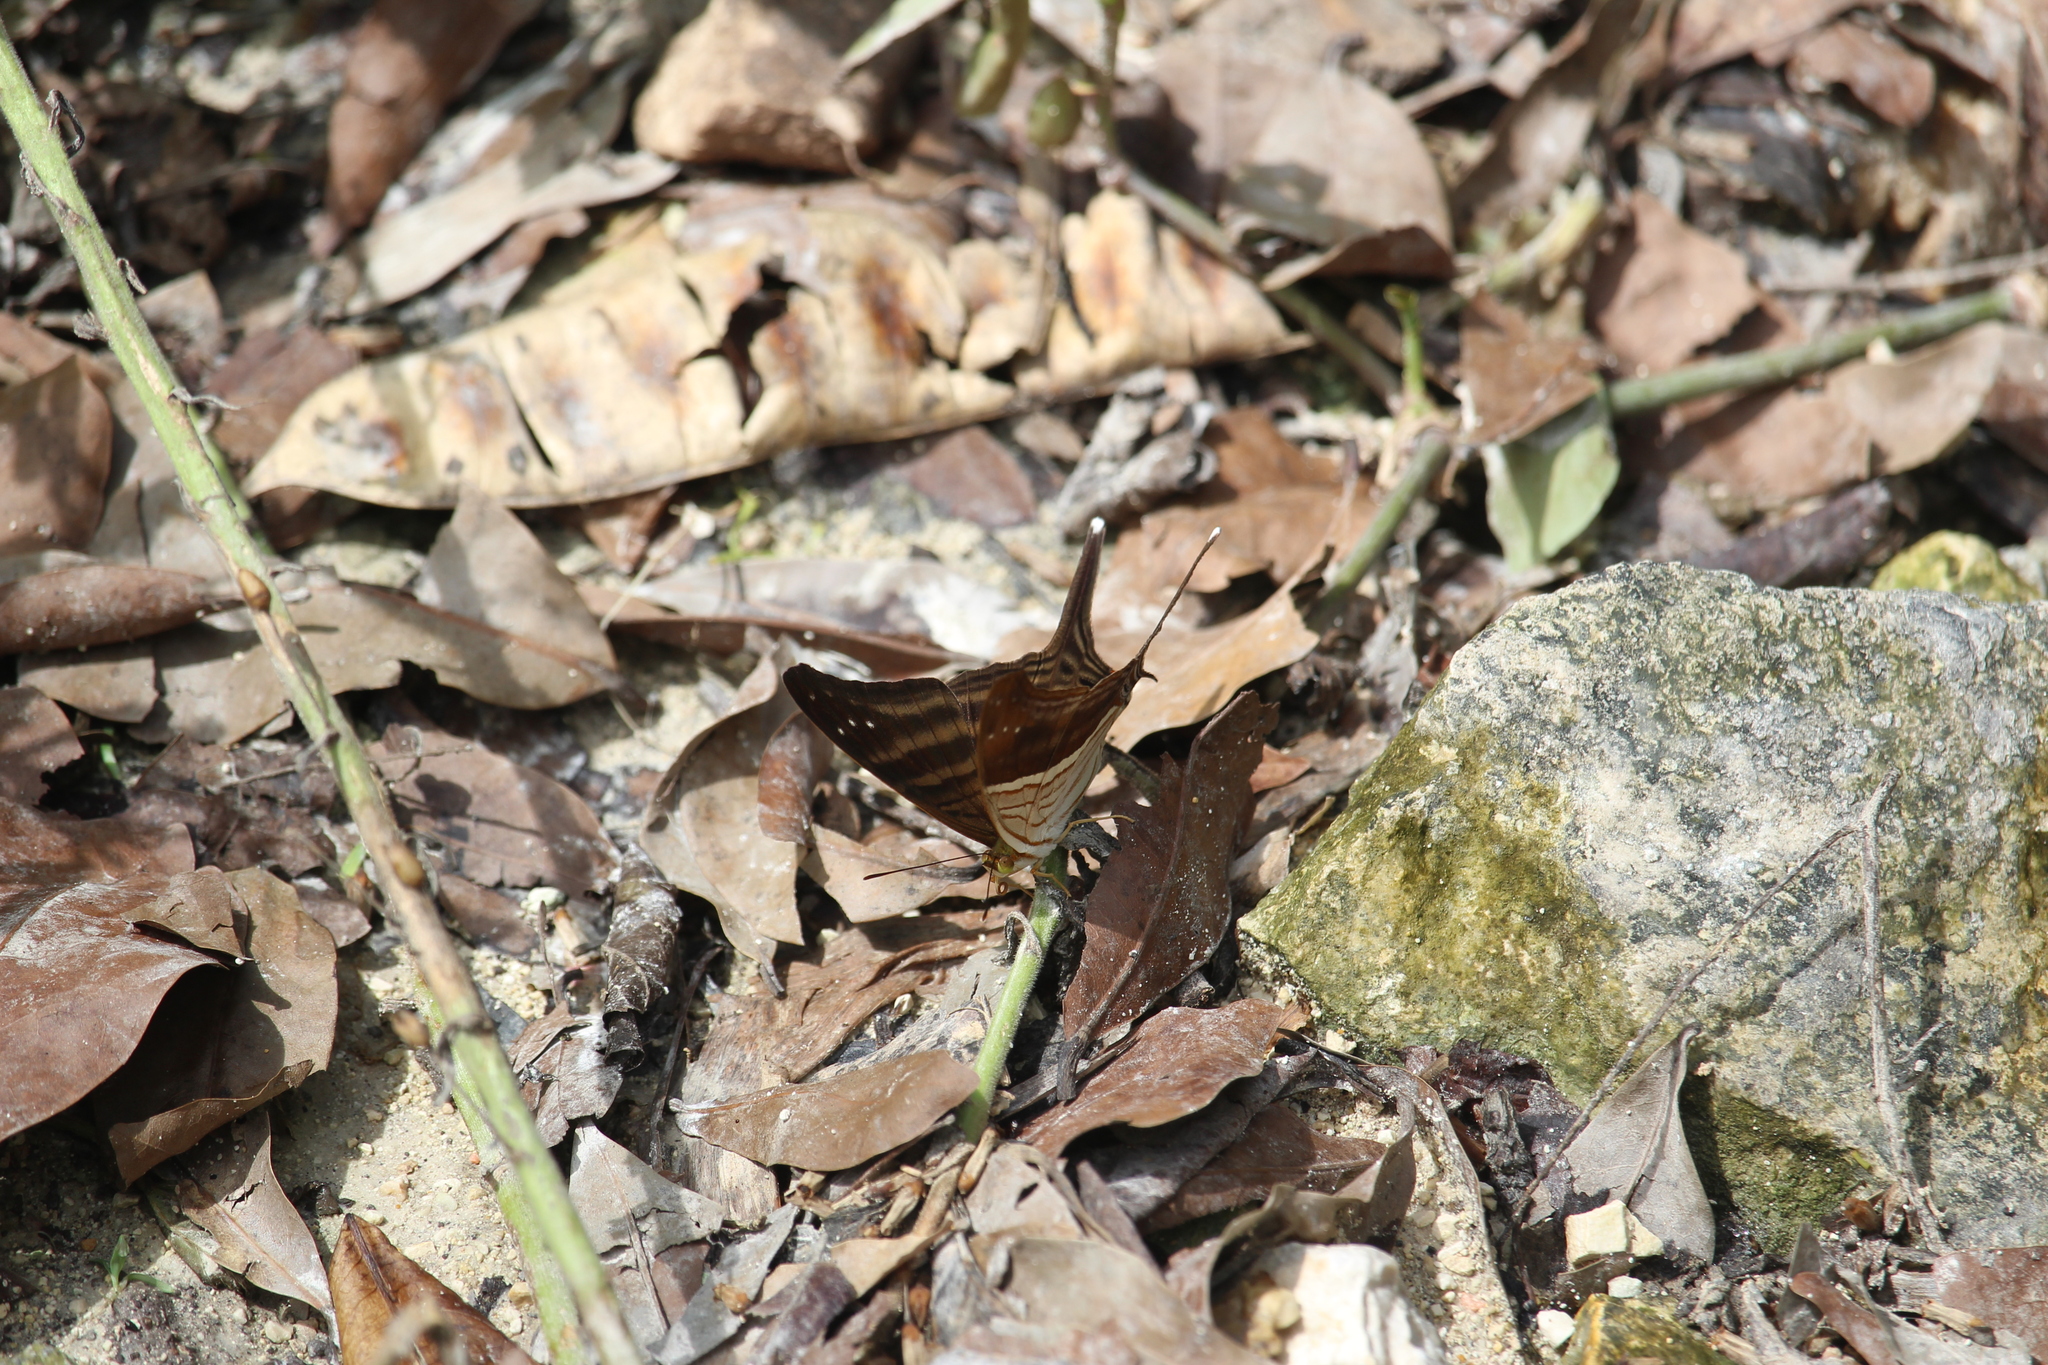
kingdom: Animalia
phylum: Arthropoda
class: Insecta
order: Lepidoptera
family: Nymphalidae
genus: Marpesia
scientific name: Marpesia chiron
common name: Many-banded daggerwing
